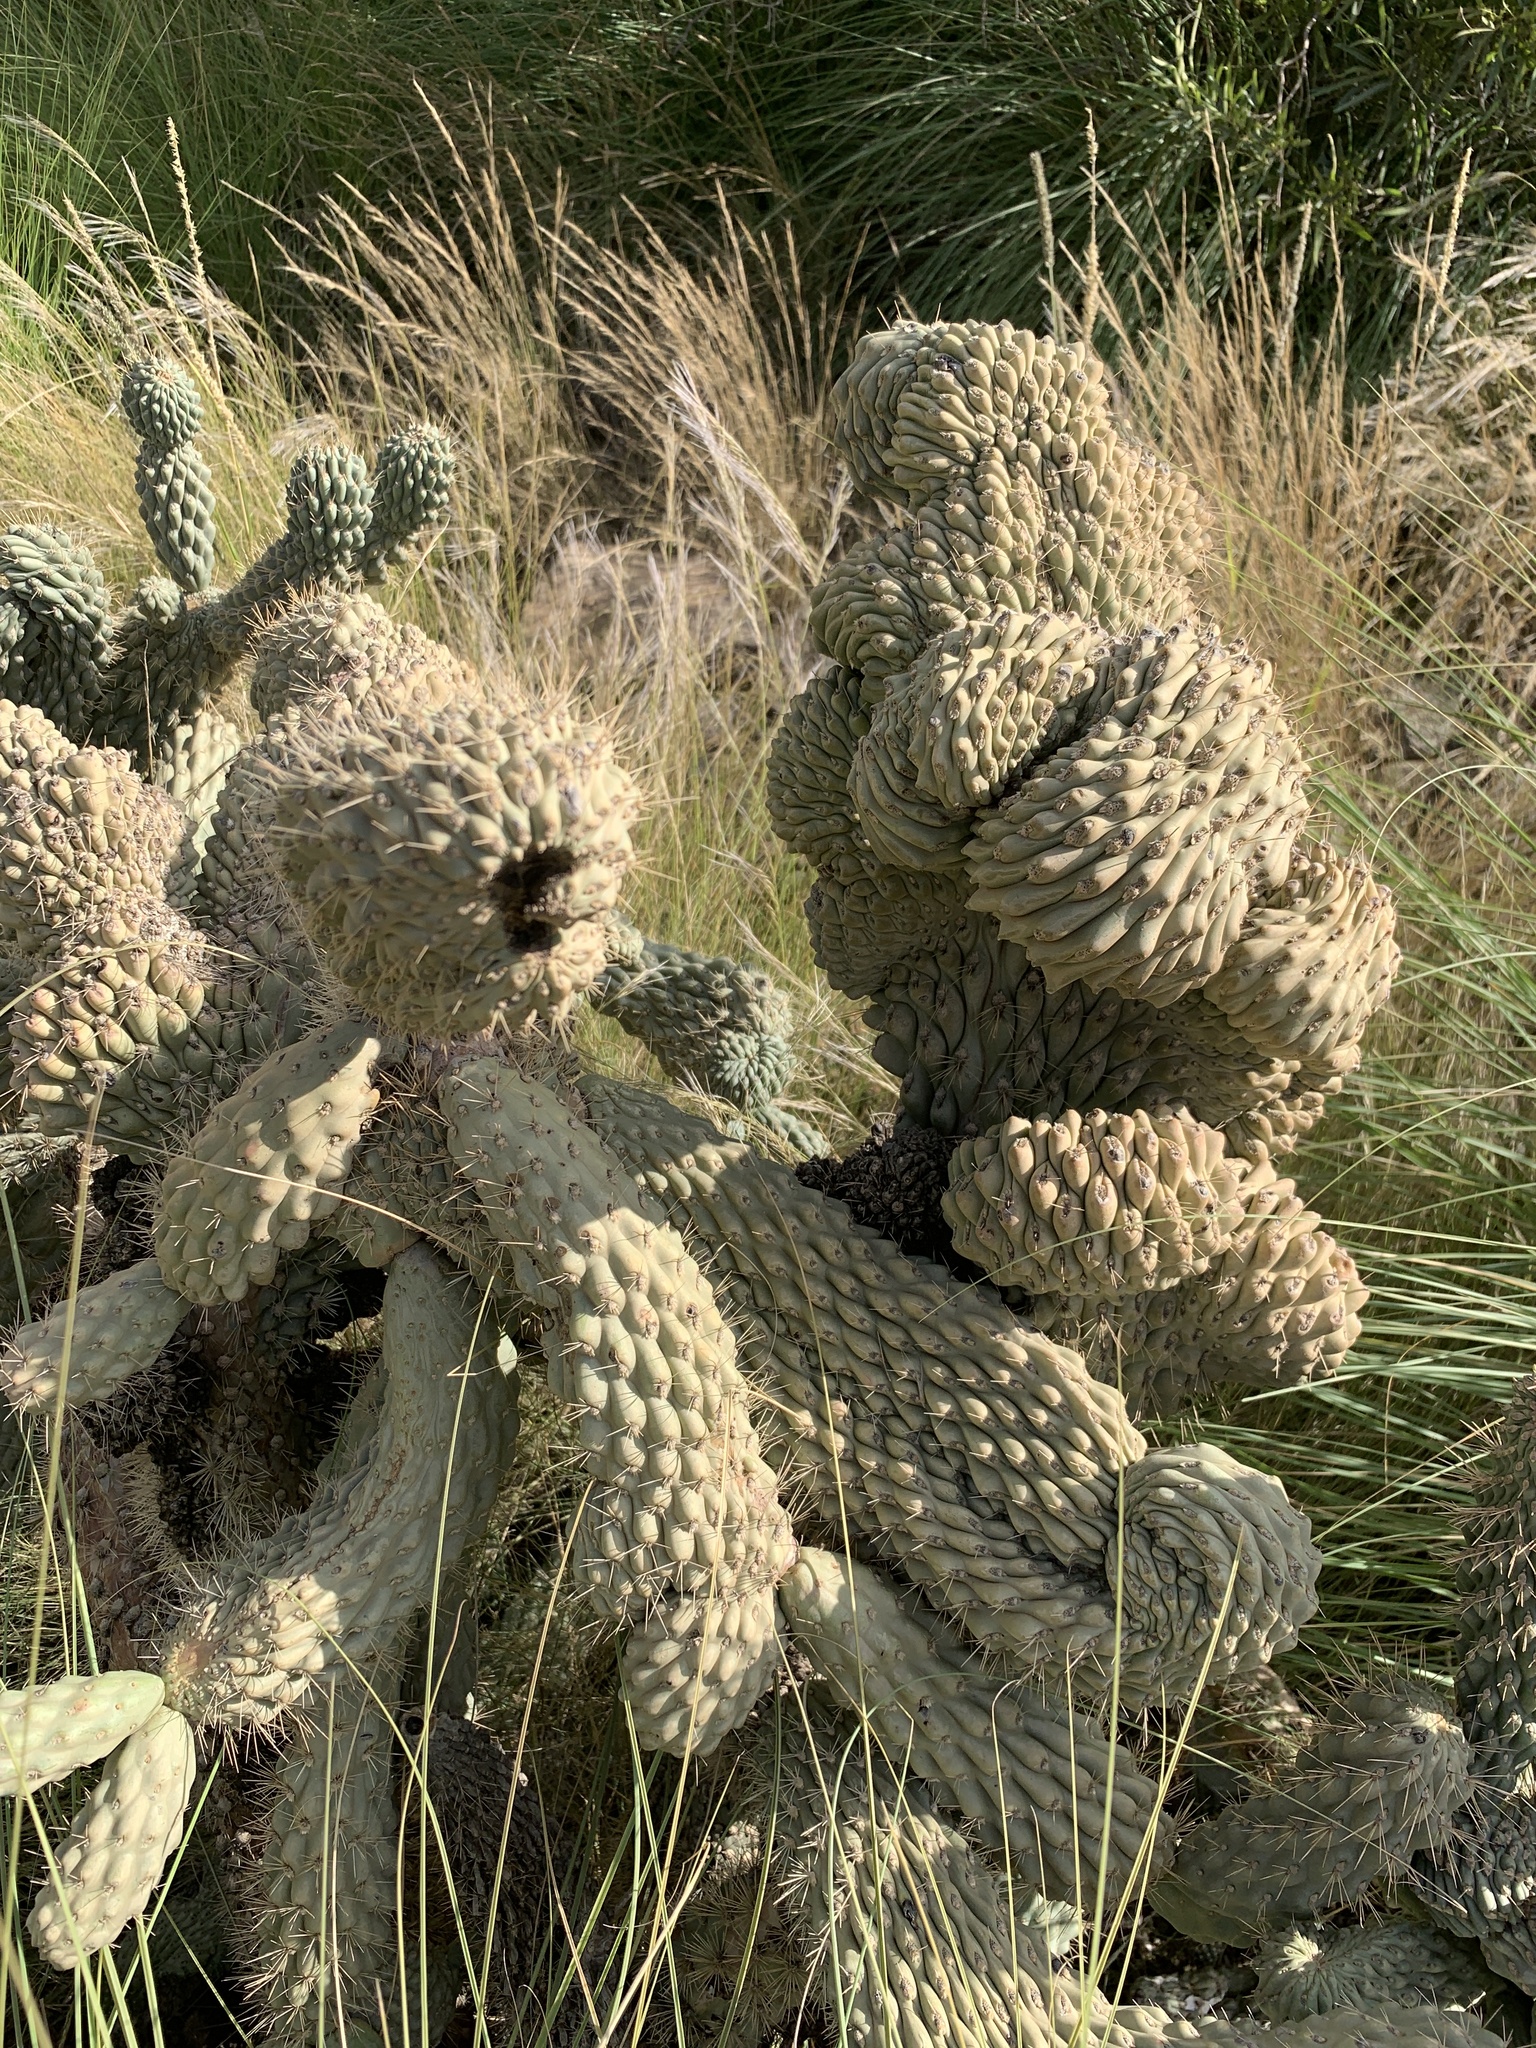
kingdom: Plantae
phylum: Tracheophyta
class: Magnoliopsida
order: Caryophyllales
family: Cactaceae
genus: Cylindropuntia
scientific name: Cylindropuntia fulgida
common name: Jumping cholla
